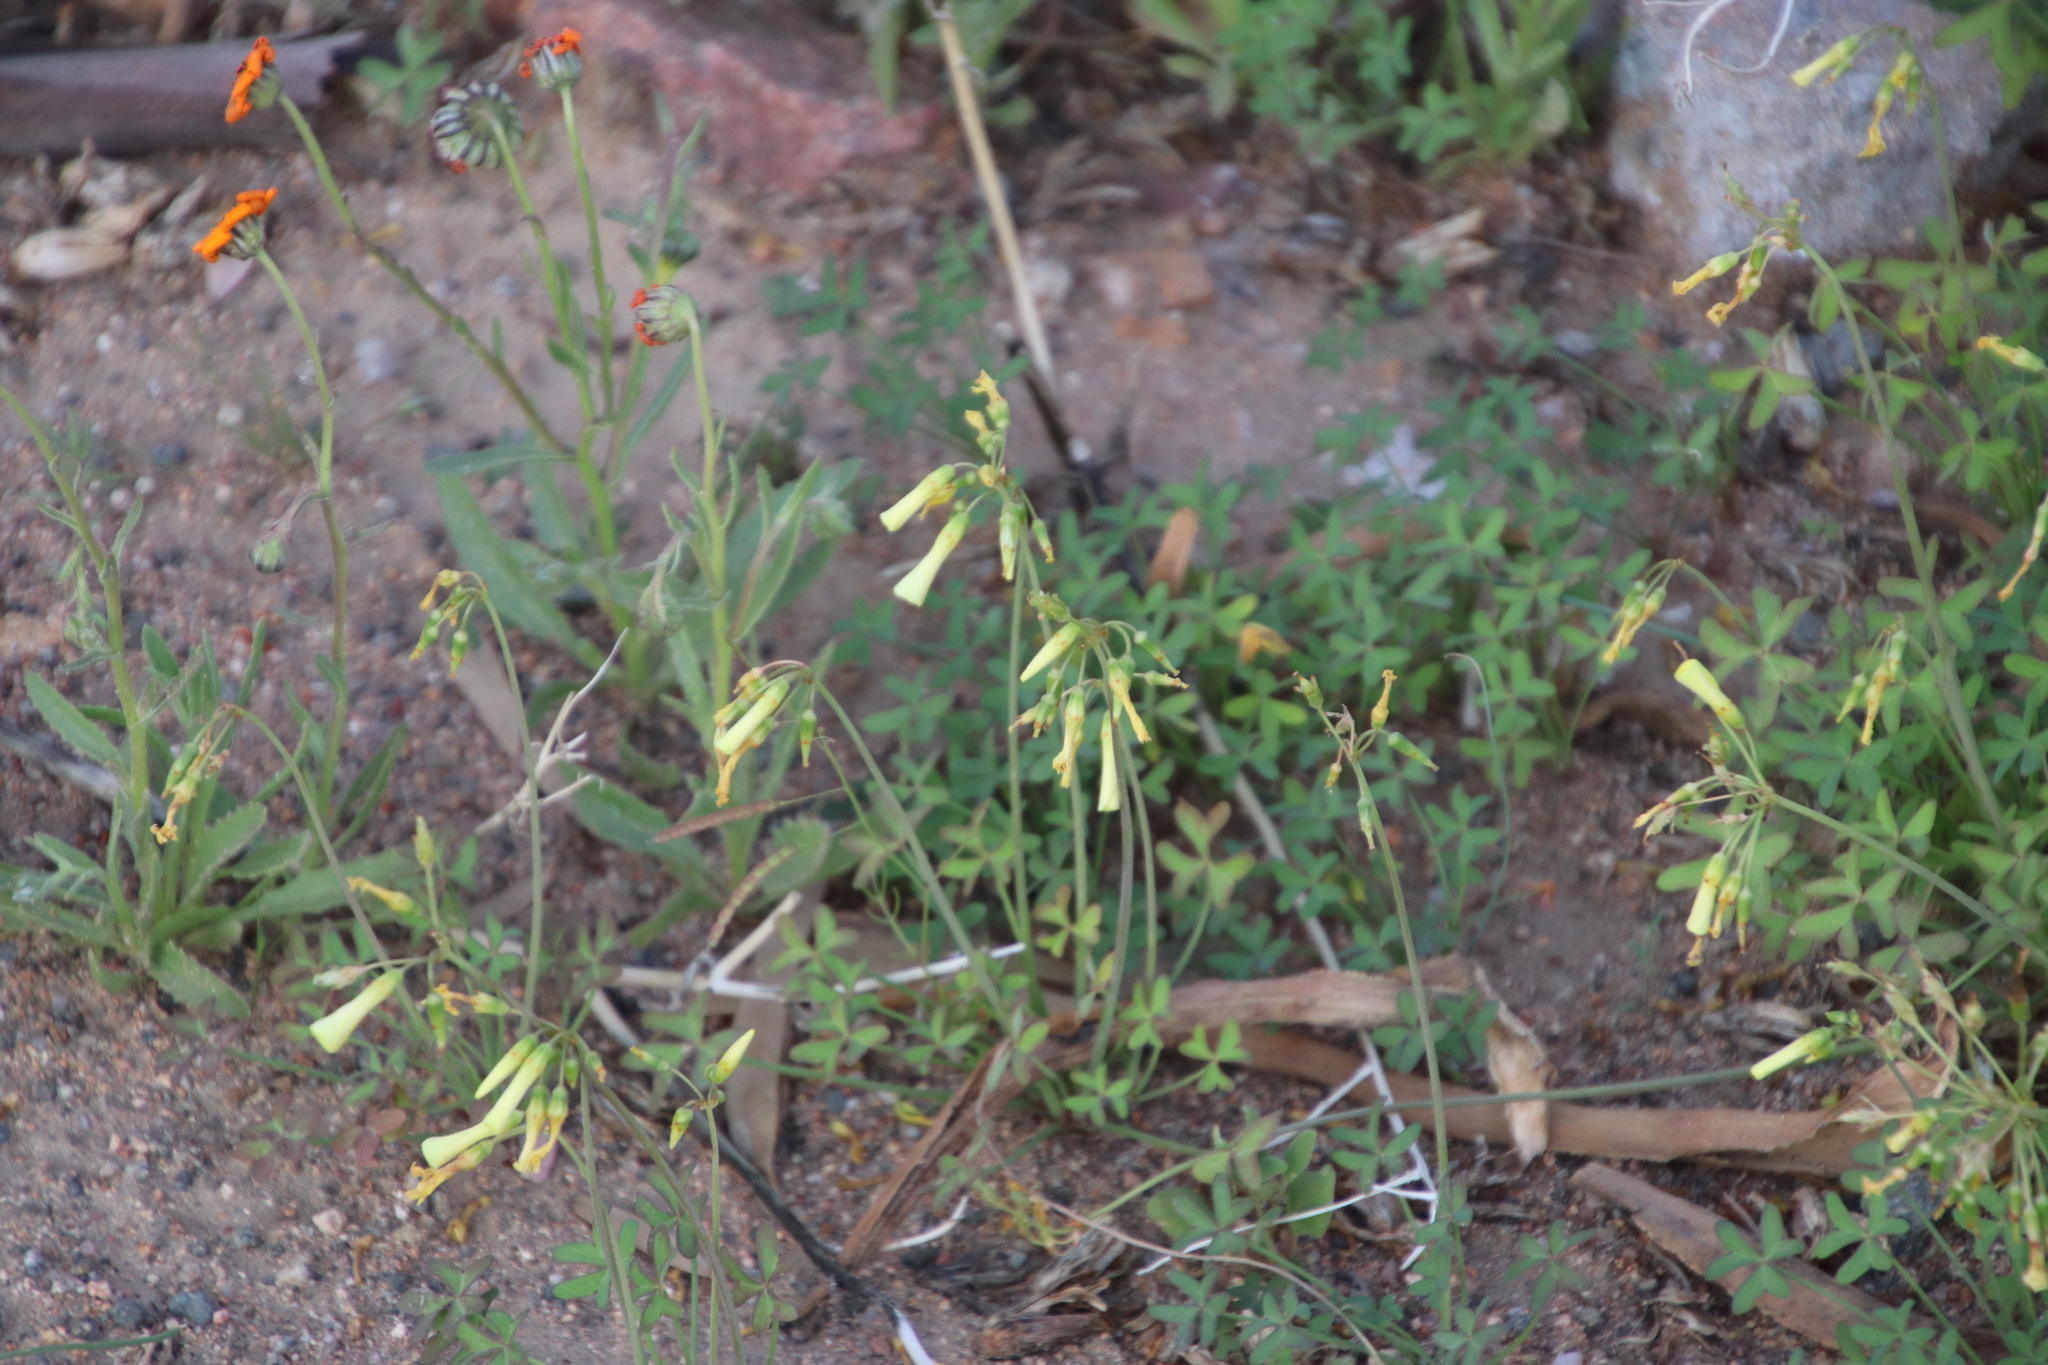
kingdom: Plantae
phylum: Tracheophyta
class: Magnoliopsida
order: Oxalidales
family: Oxalidaceae
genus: Oxalis
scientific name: Oxalis pes-caprae
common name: Bermuda-buttercup
